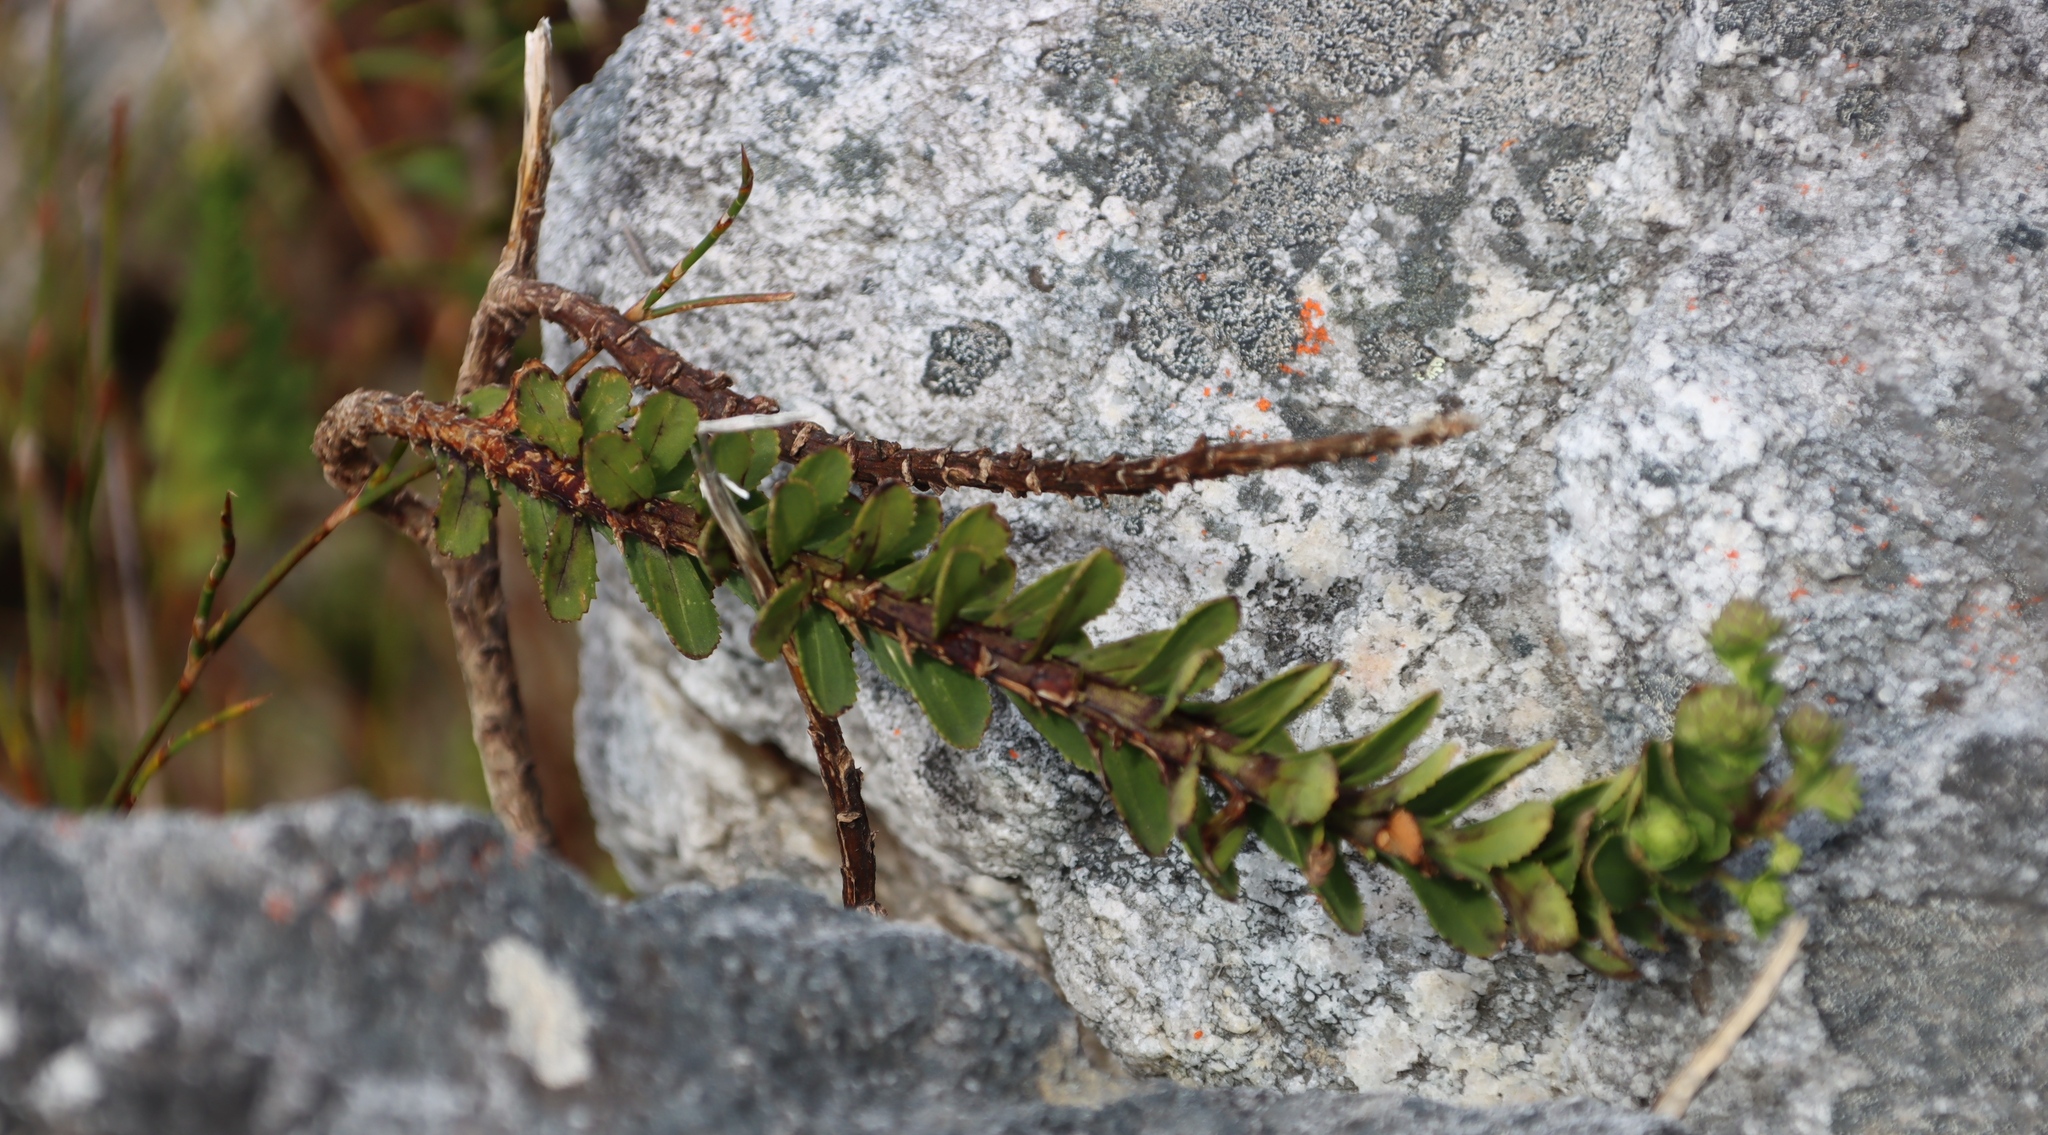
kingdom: Plantae
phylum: Tracheophyta
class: Magnoliopsida
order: Lamiales
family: Scrophulariaceae
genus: Pseudoselago
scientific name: Pseudoselago pulchra
